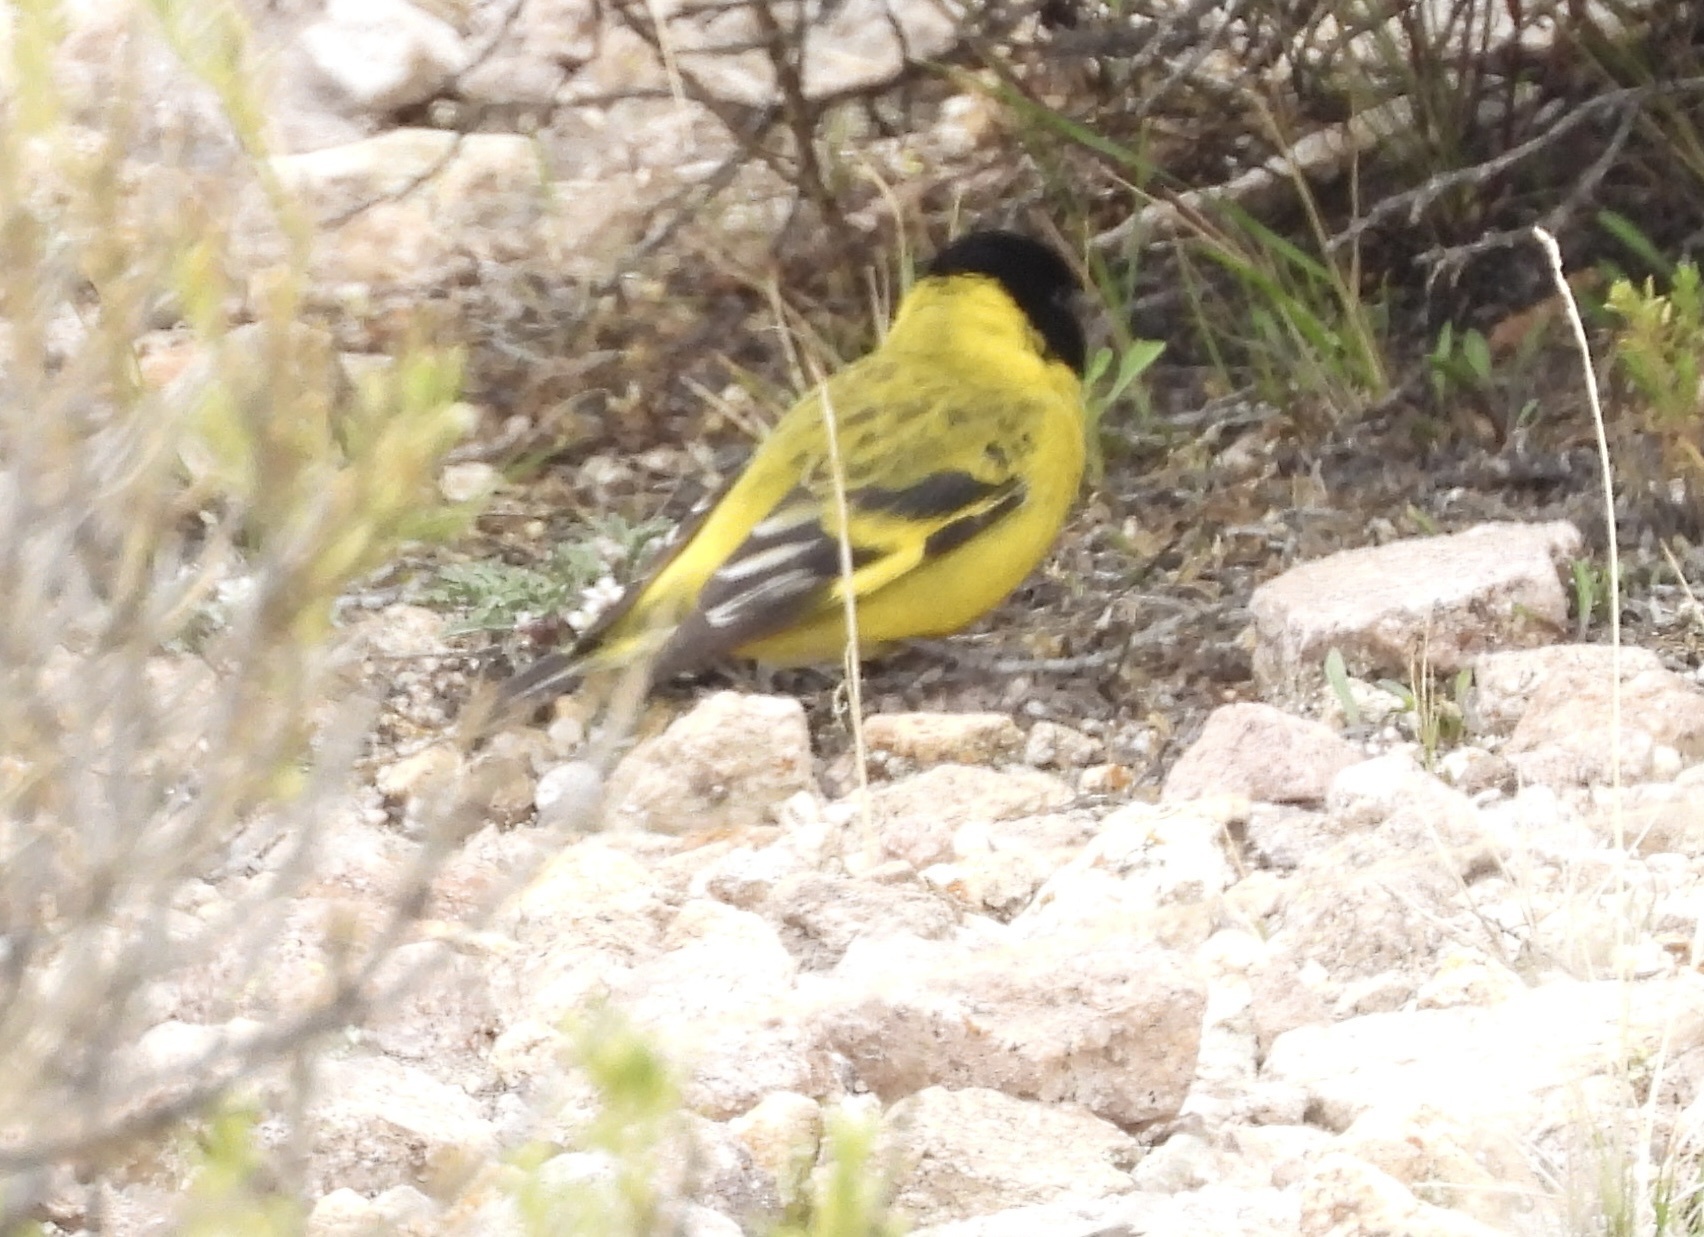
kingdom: Animalia
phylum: Chordata
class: Aves
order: Passeriformes
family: Fringillidae
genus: Spinus
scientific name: Spinus magellanicus
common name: Hooded siskin
